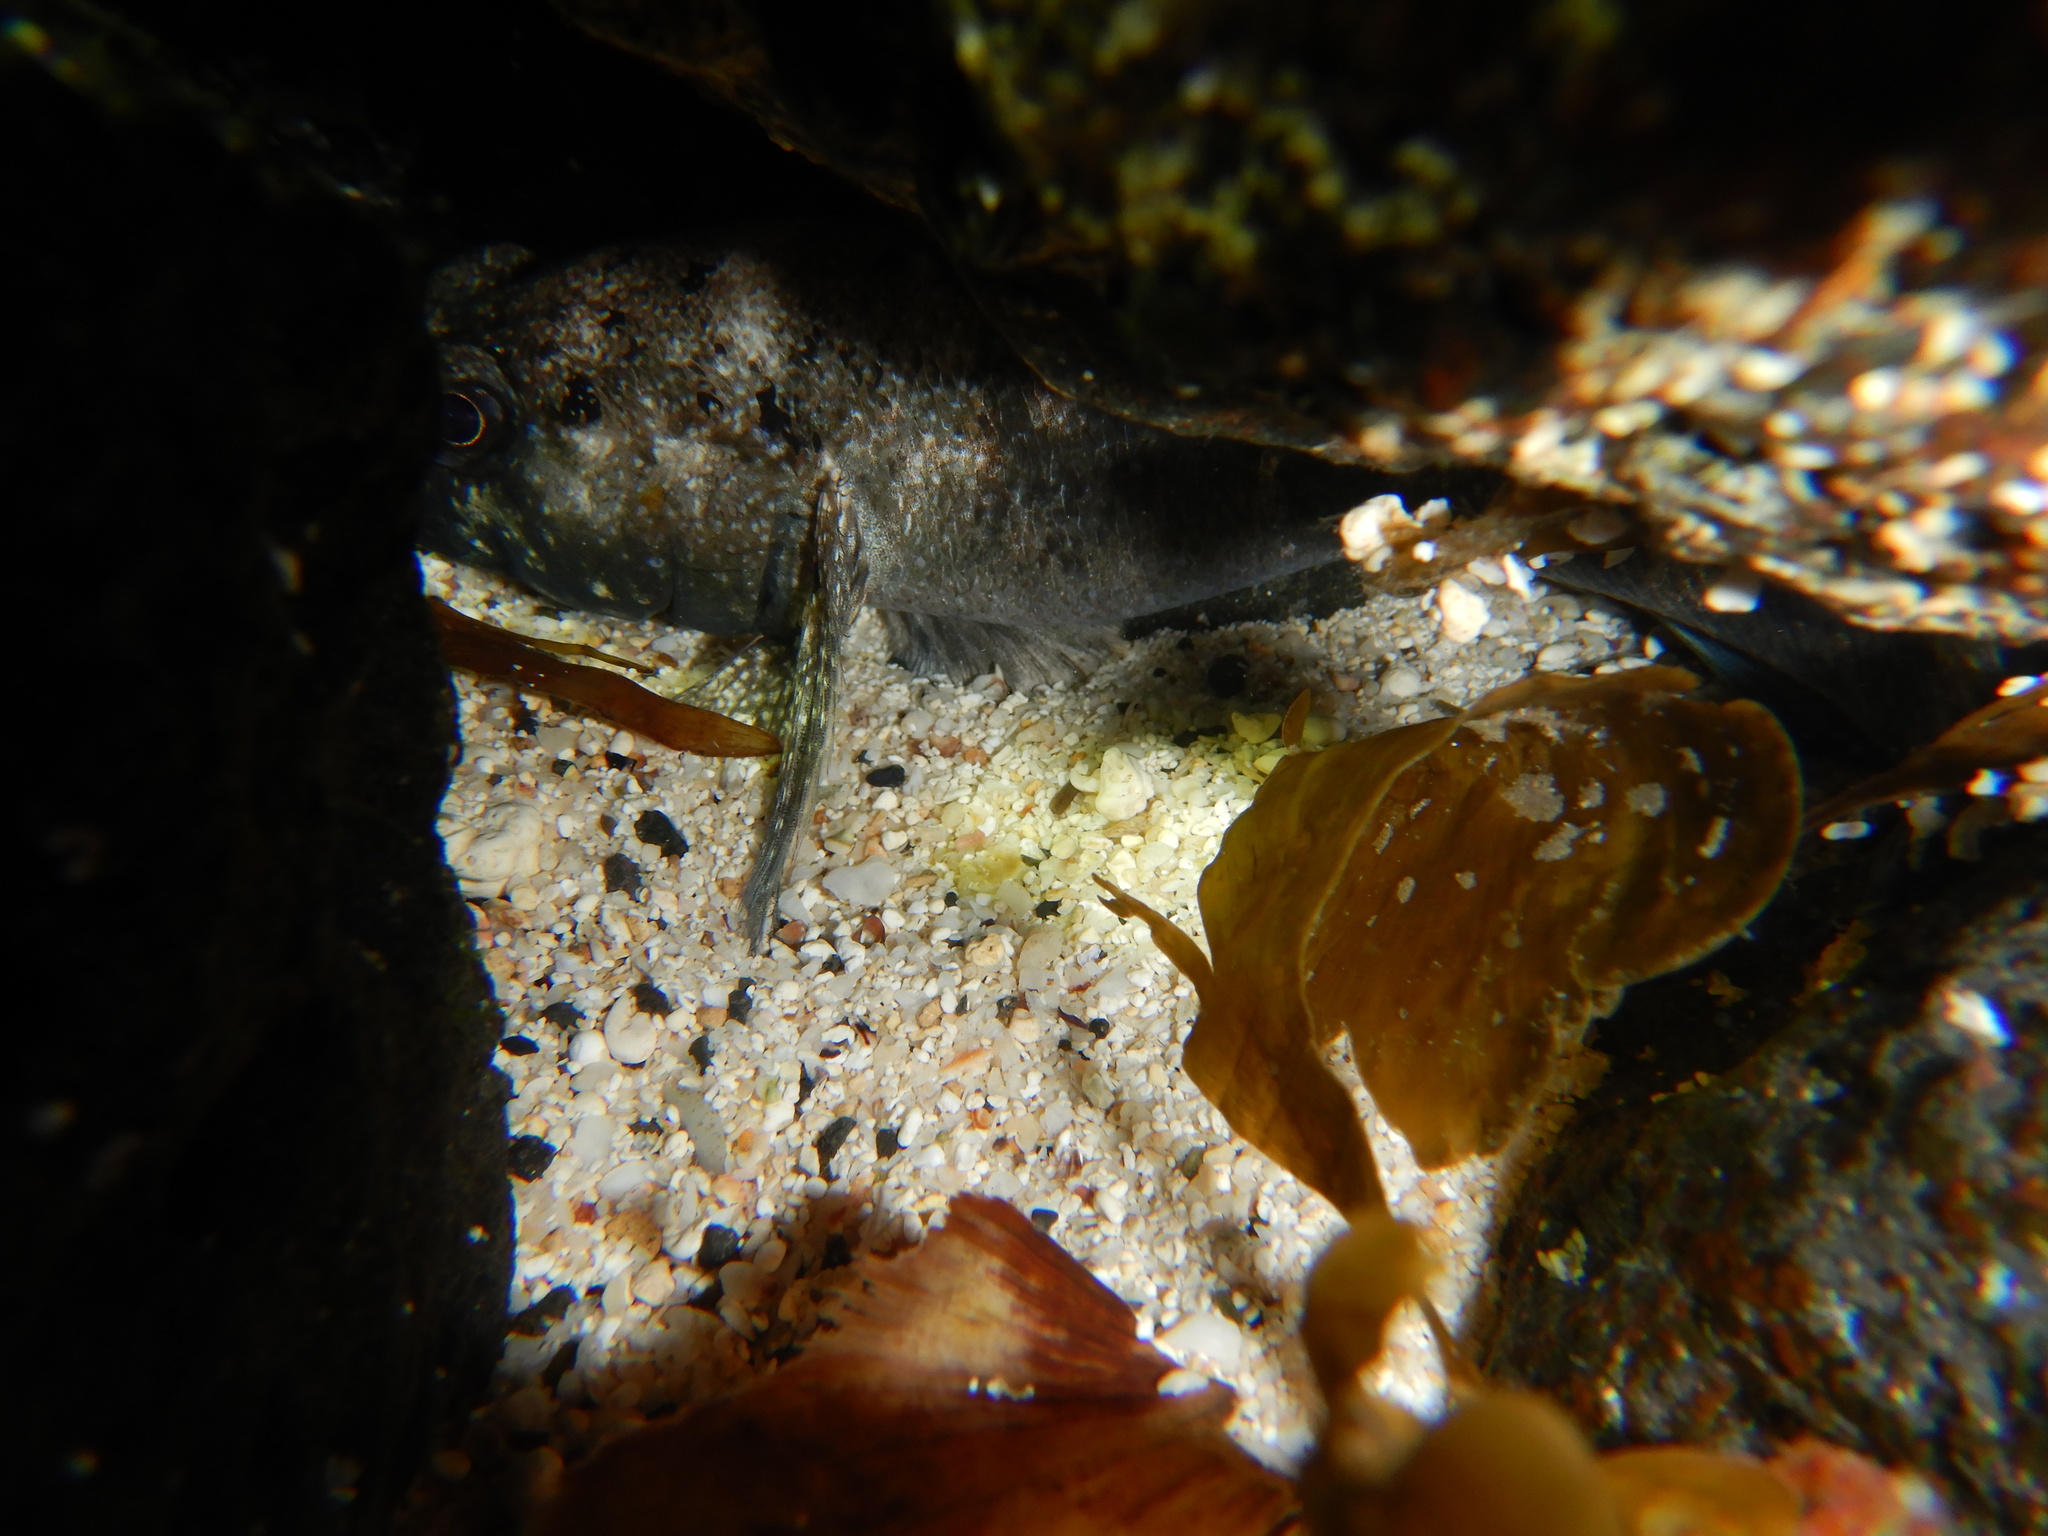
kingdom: Animalia
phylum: Chordata
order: Perciformes
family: Gobiidae
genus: Mauligobius
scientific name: Mauligobius maderensis
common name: Rock goby
